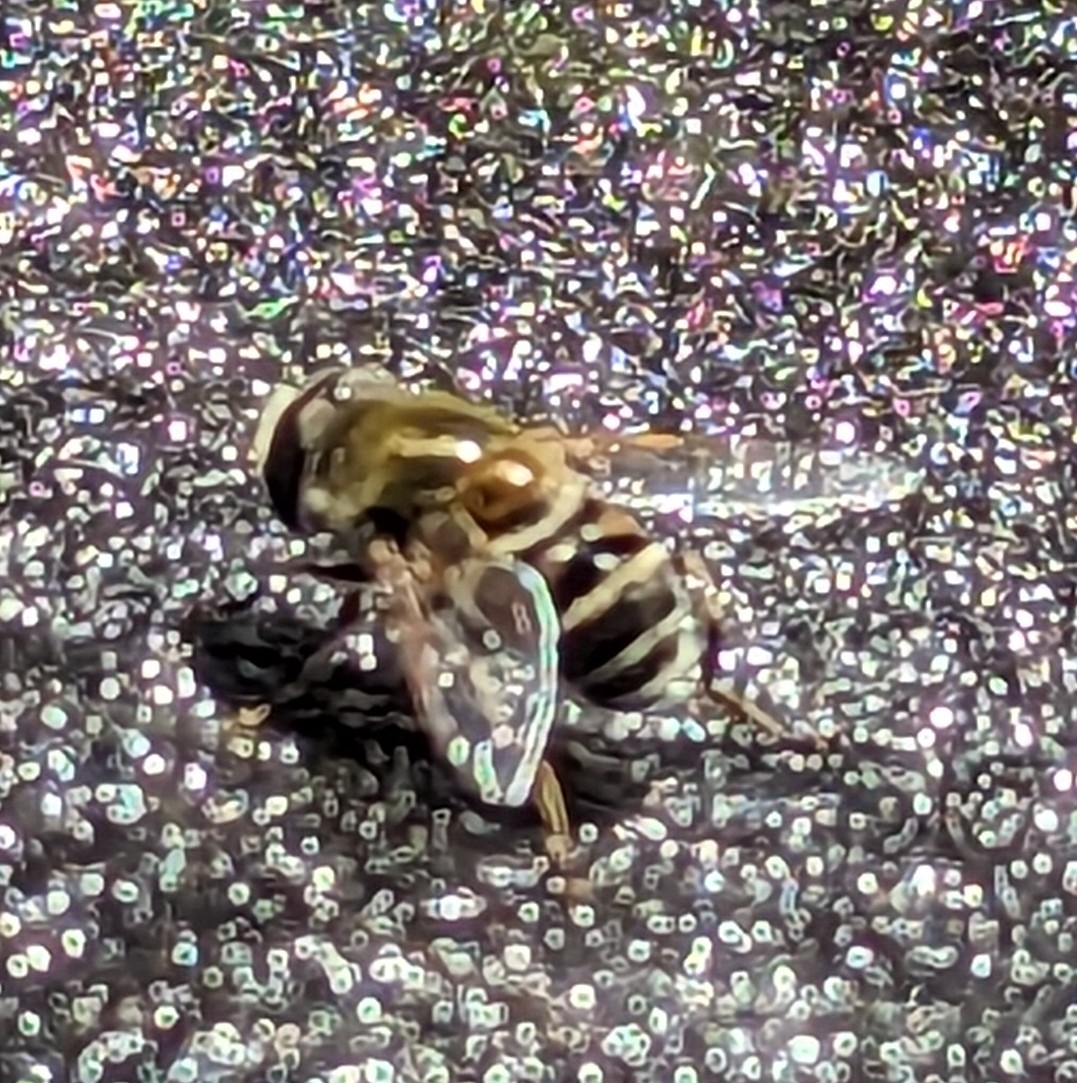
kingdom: Animalia
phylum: Arthropoda
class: Insecta
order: Diptera
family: Syrphidae
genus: Eristalis
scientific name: Eristalis stipator
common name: Yellow-shouldered drone fly
